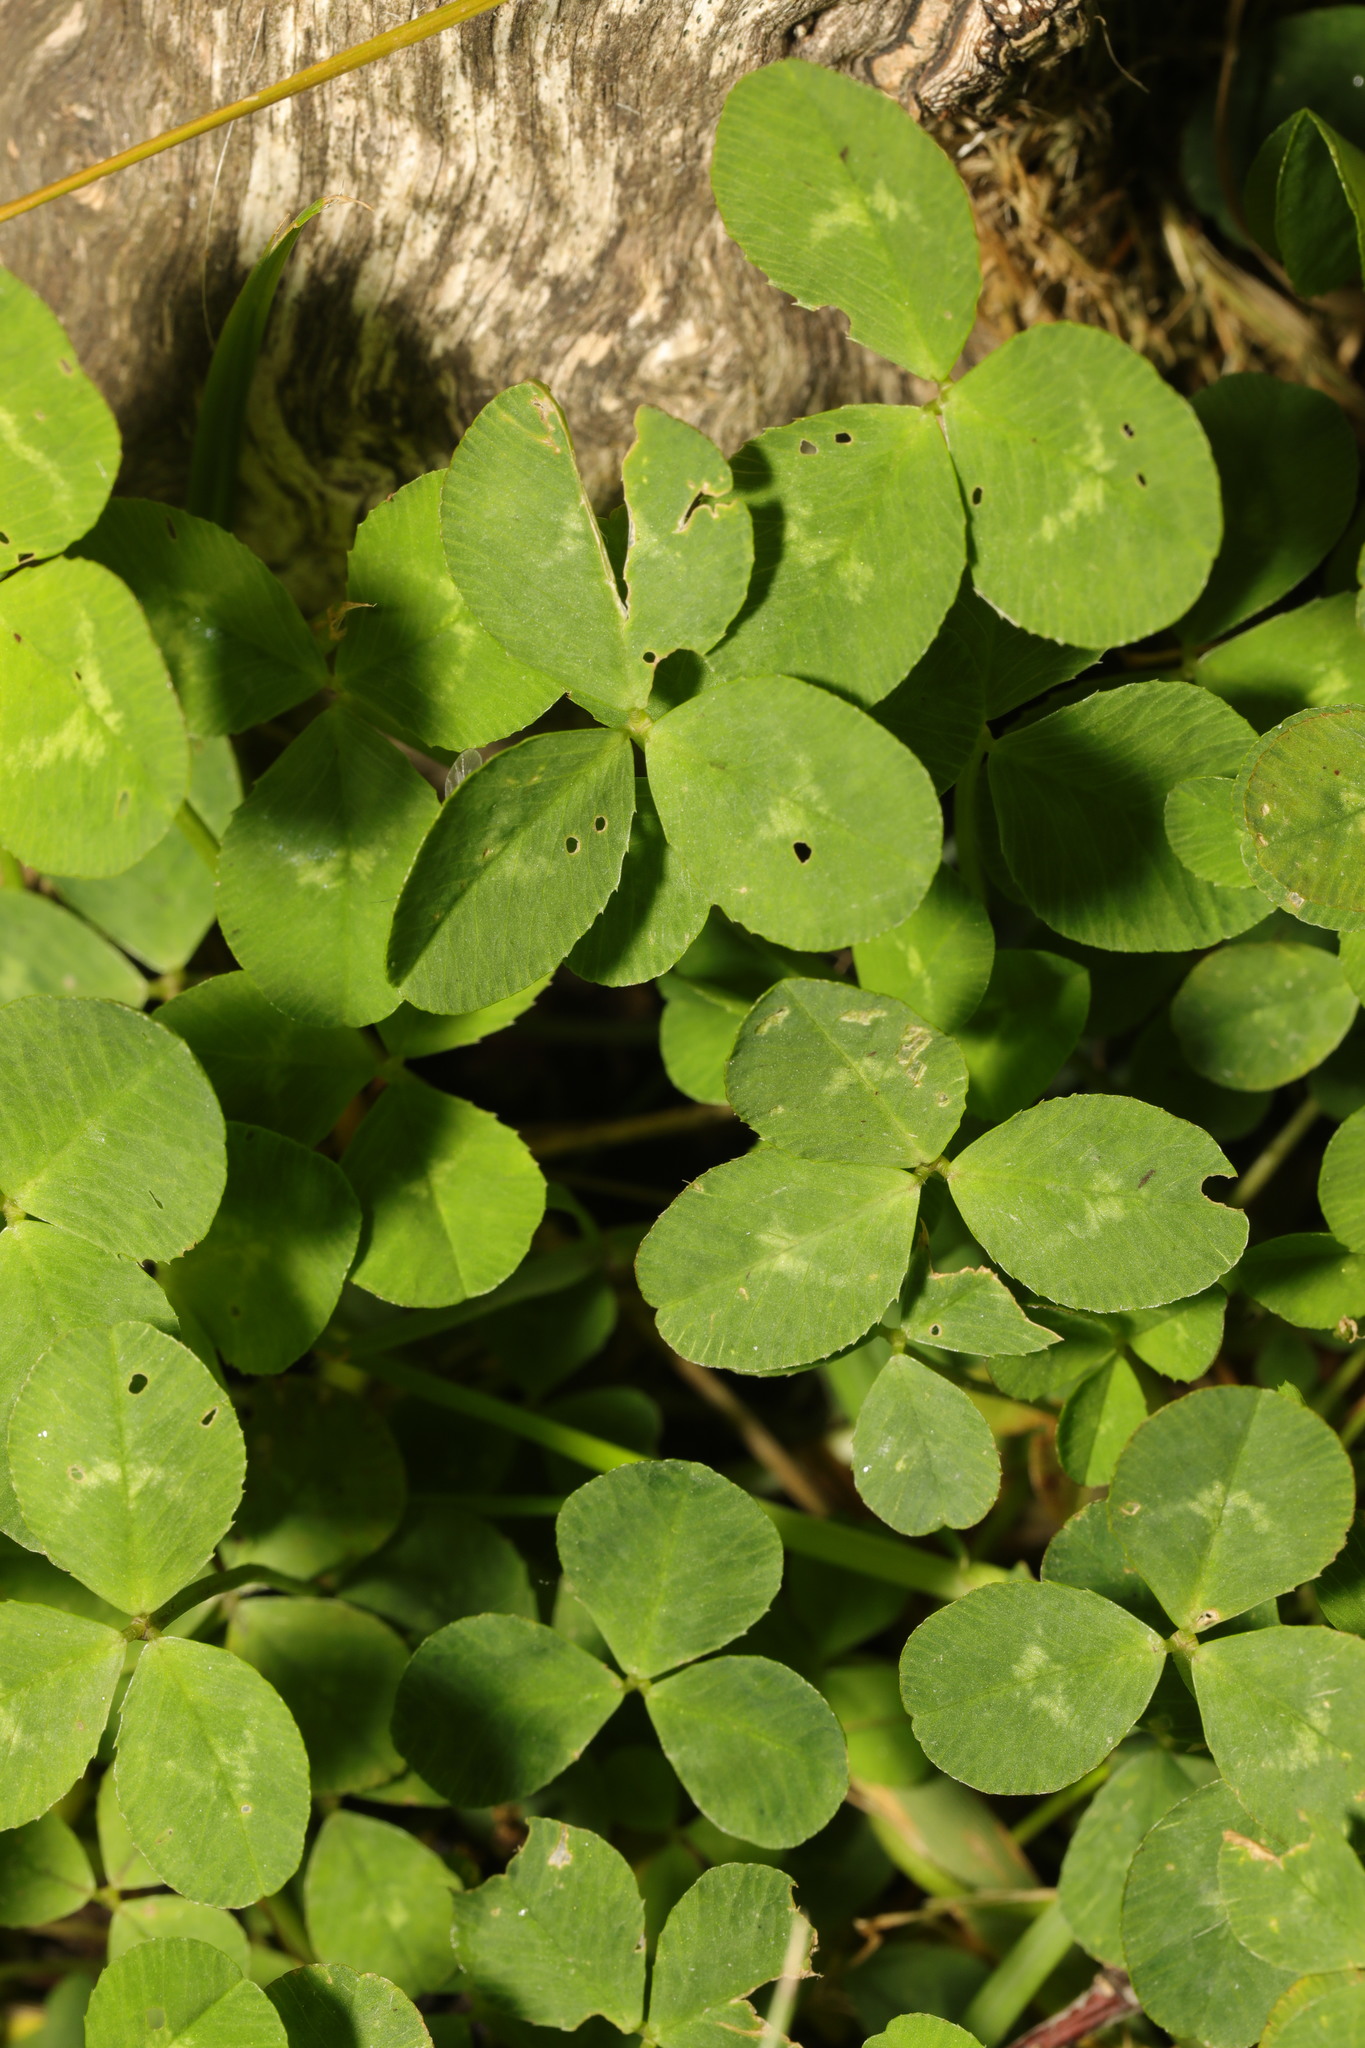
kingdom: Plantae
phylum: Tracheophyta
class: Magnoliopsida
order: Fabales
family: Fabaceae
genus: Trifolium
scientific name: Trifolium repens
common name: White clover
